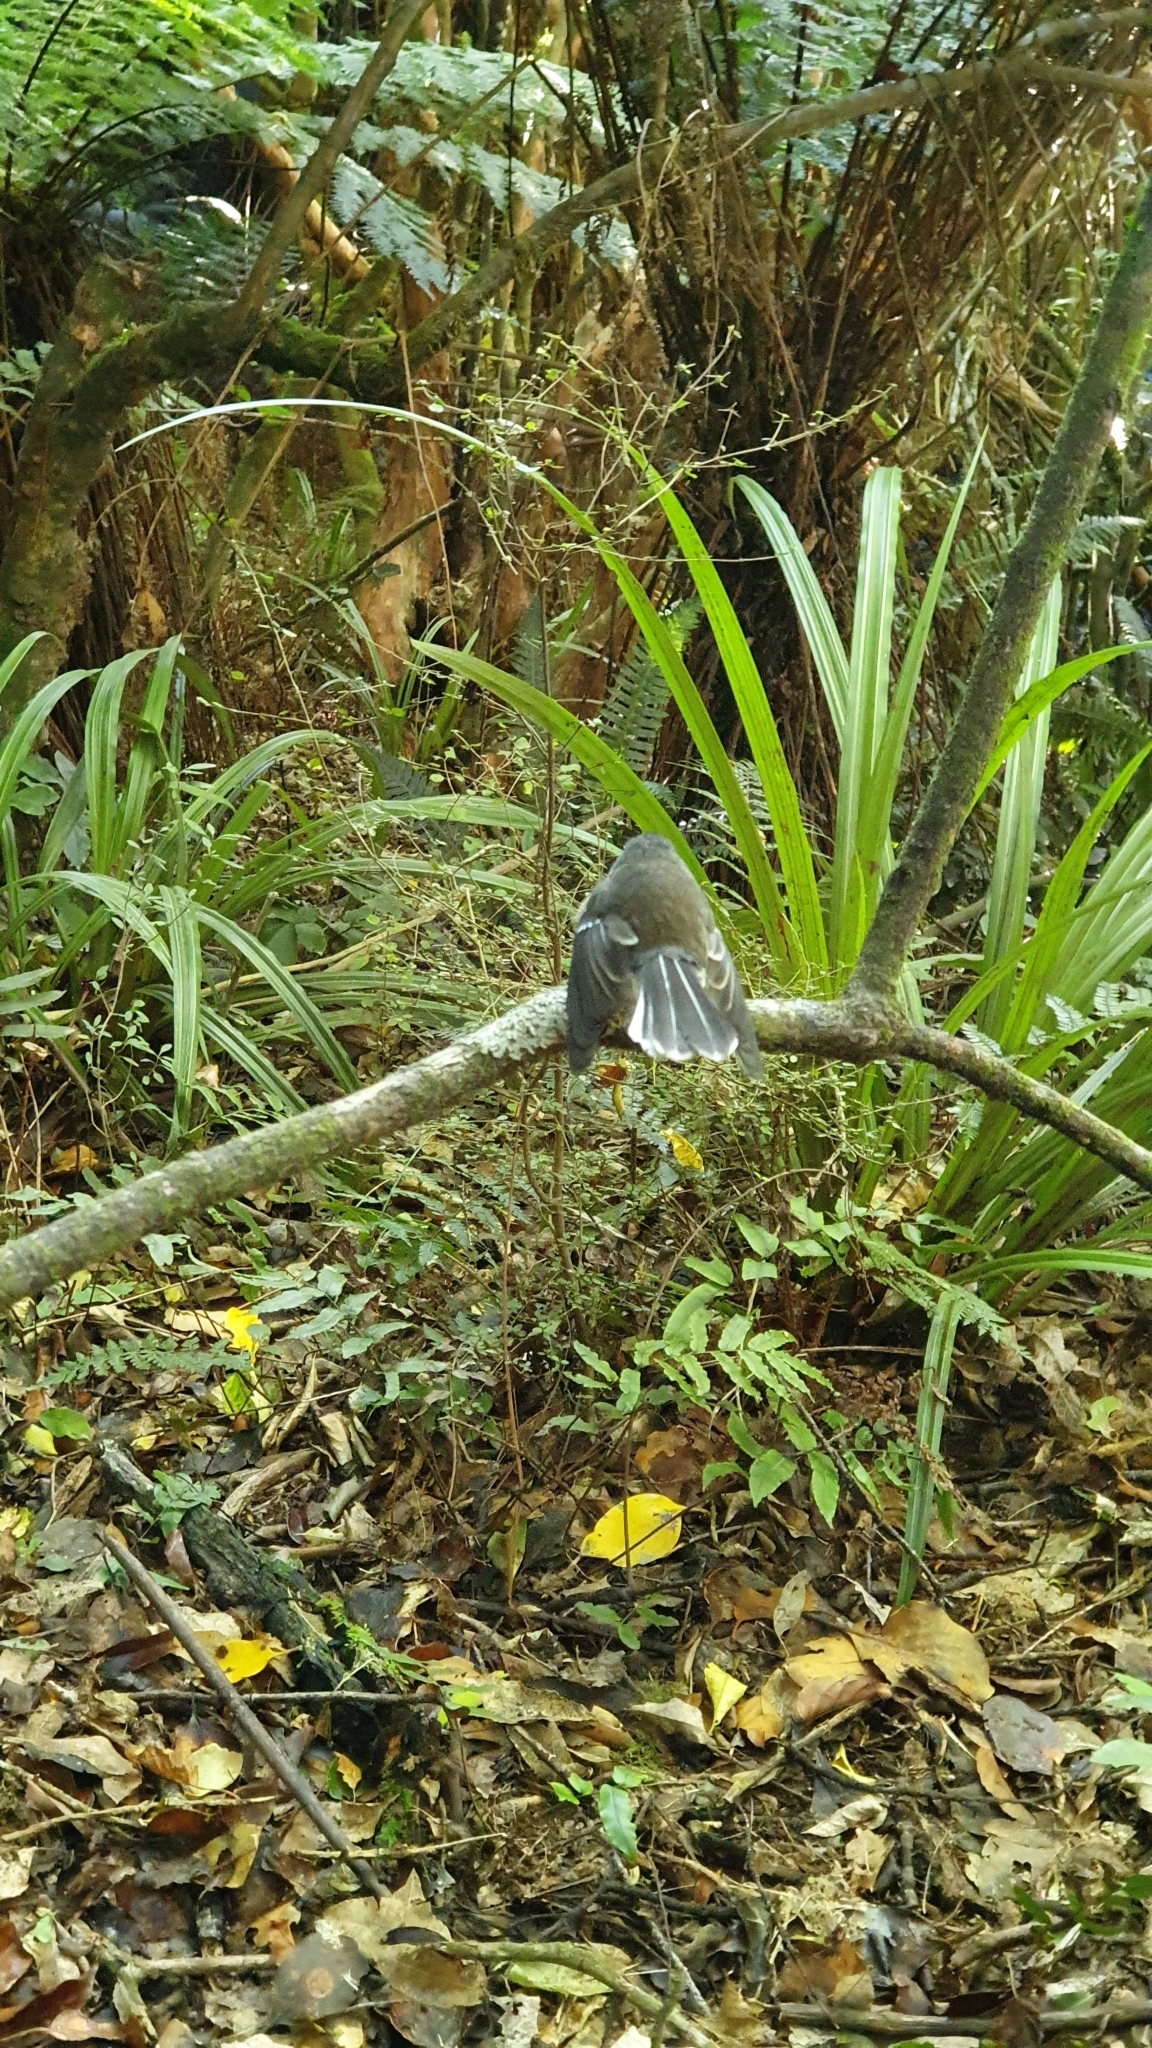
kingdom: Animalia
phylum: Chordata
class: Aves
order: Passeriformes
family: Rhipiduridae
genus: Rhipidura
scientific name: Rhipidura fuliginosa
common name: New zealand fantail
